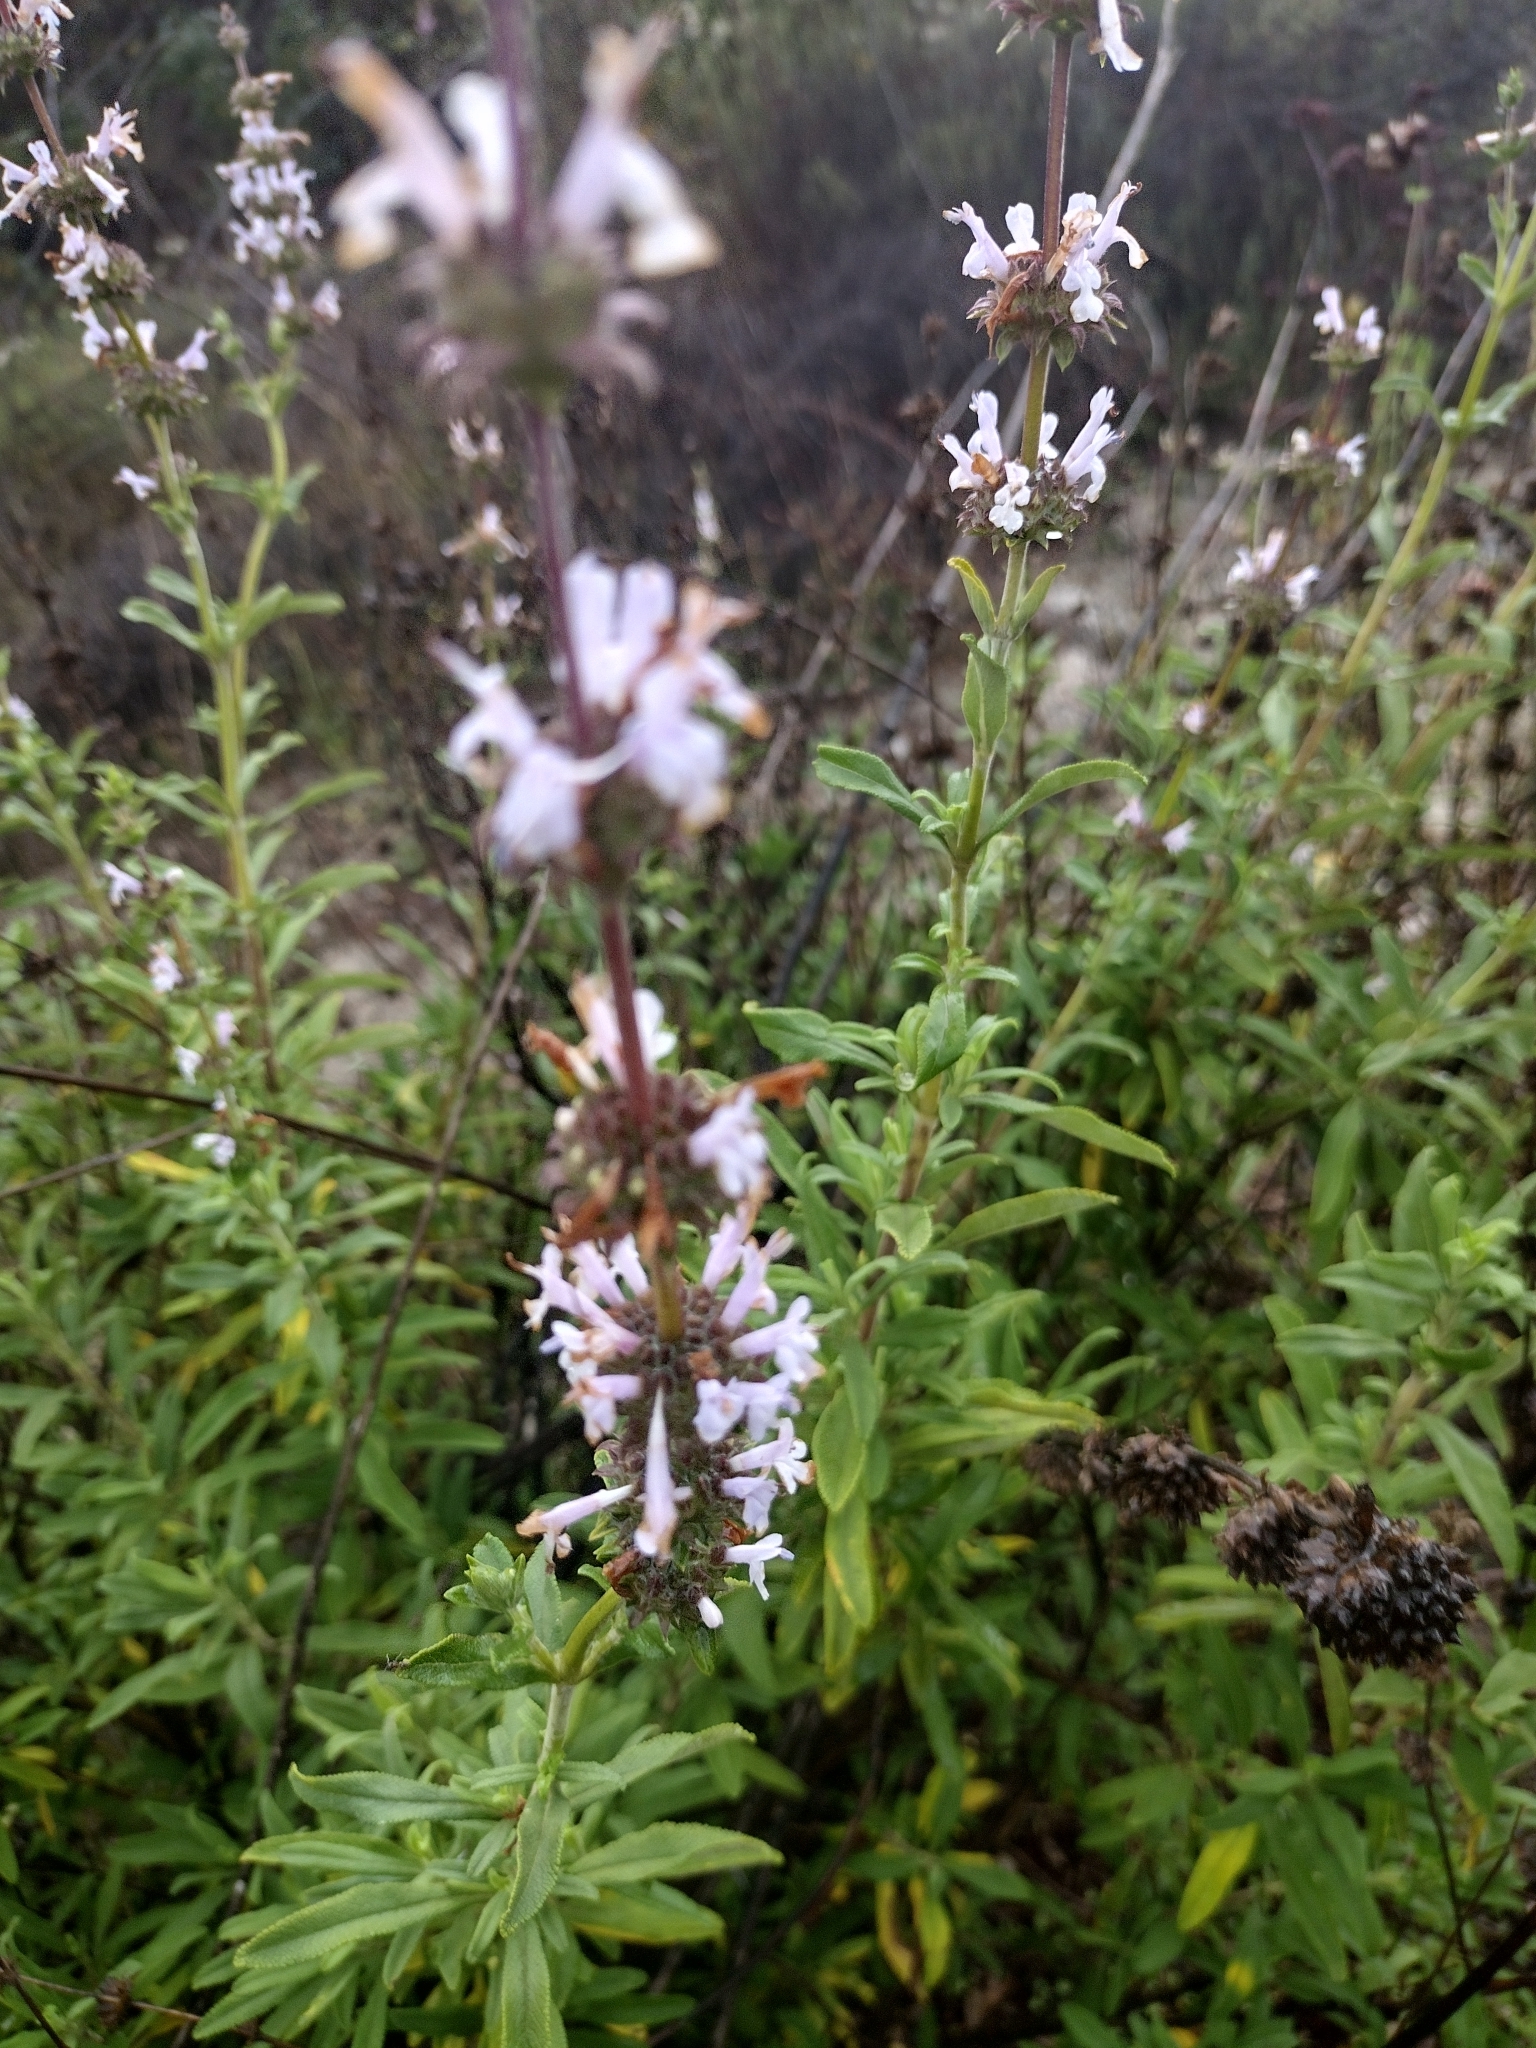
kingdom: Plantae
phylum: Tracheophyta
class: Magnoliopsida
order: Lamiales
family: Lamiaceae
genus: Salvia
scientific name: Salvia mellifera
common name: Black sage
